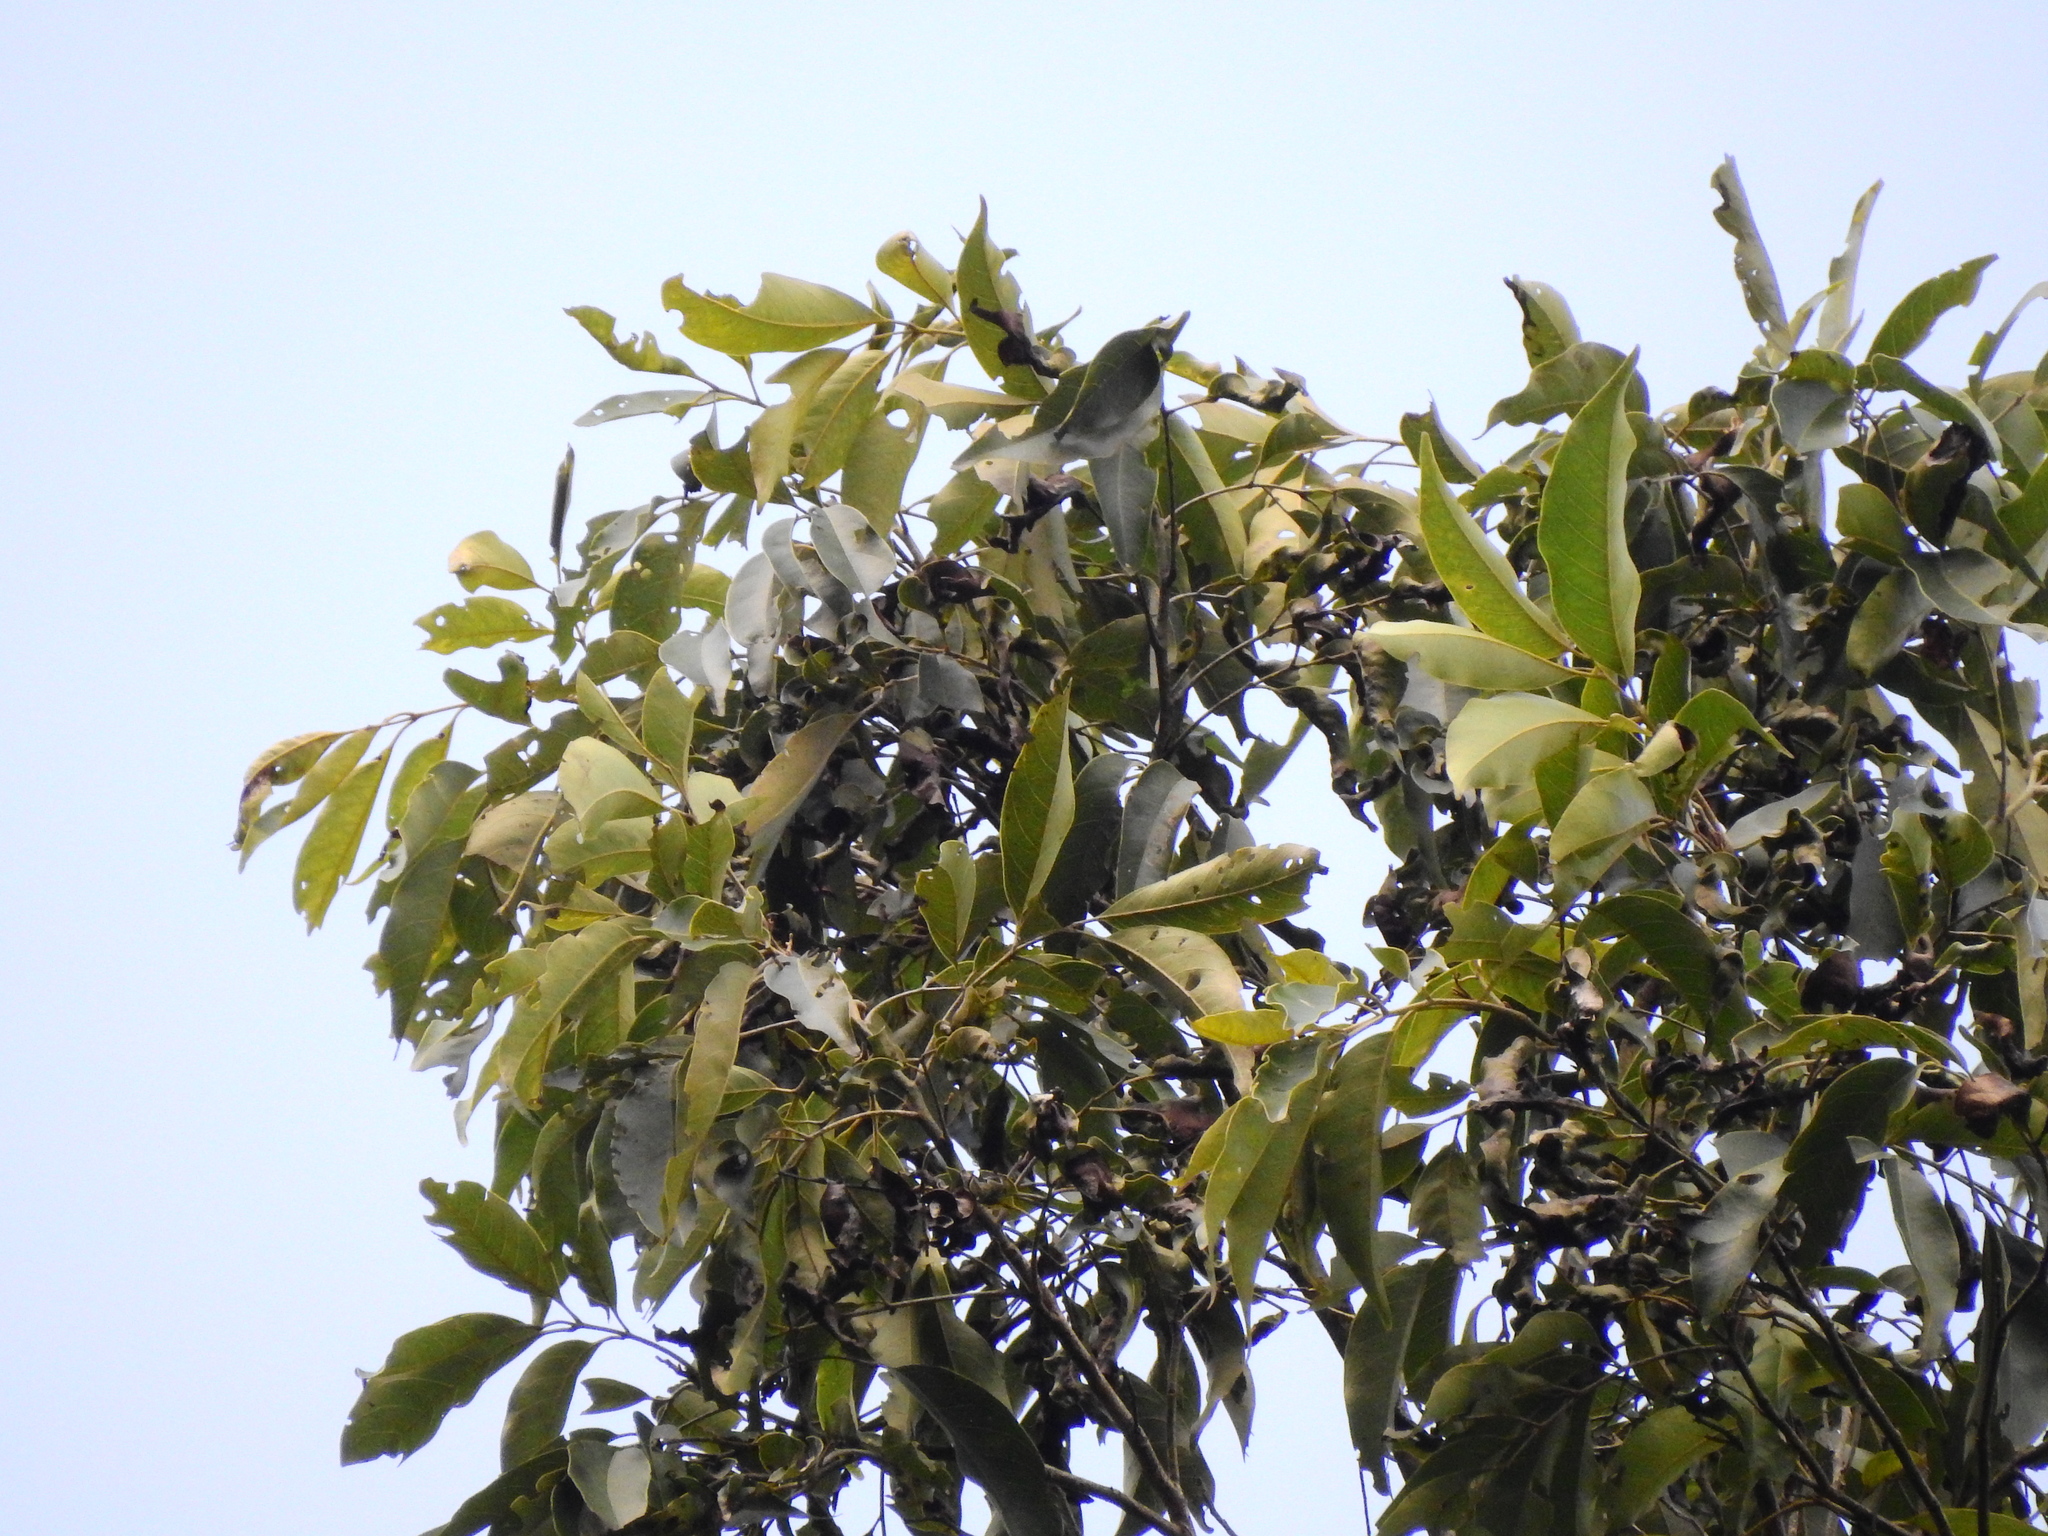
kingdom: Plantae
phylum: Tracheophyta
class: Magnoliopsida
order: Fagales
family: Juglandaceae
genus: Engelhardia
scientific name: Engelhardia roxburghiana
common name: Golden malay beam
